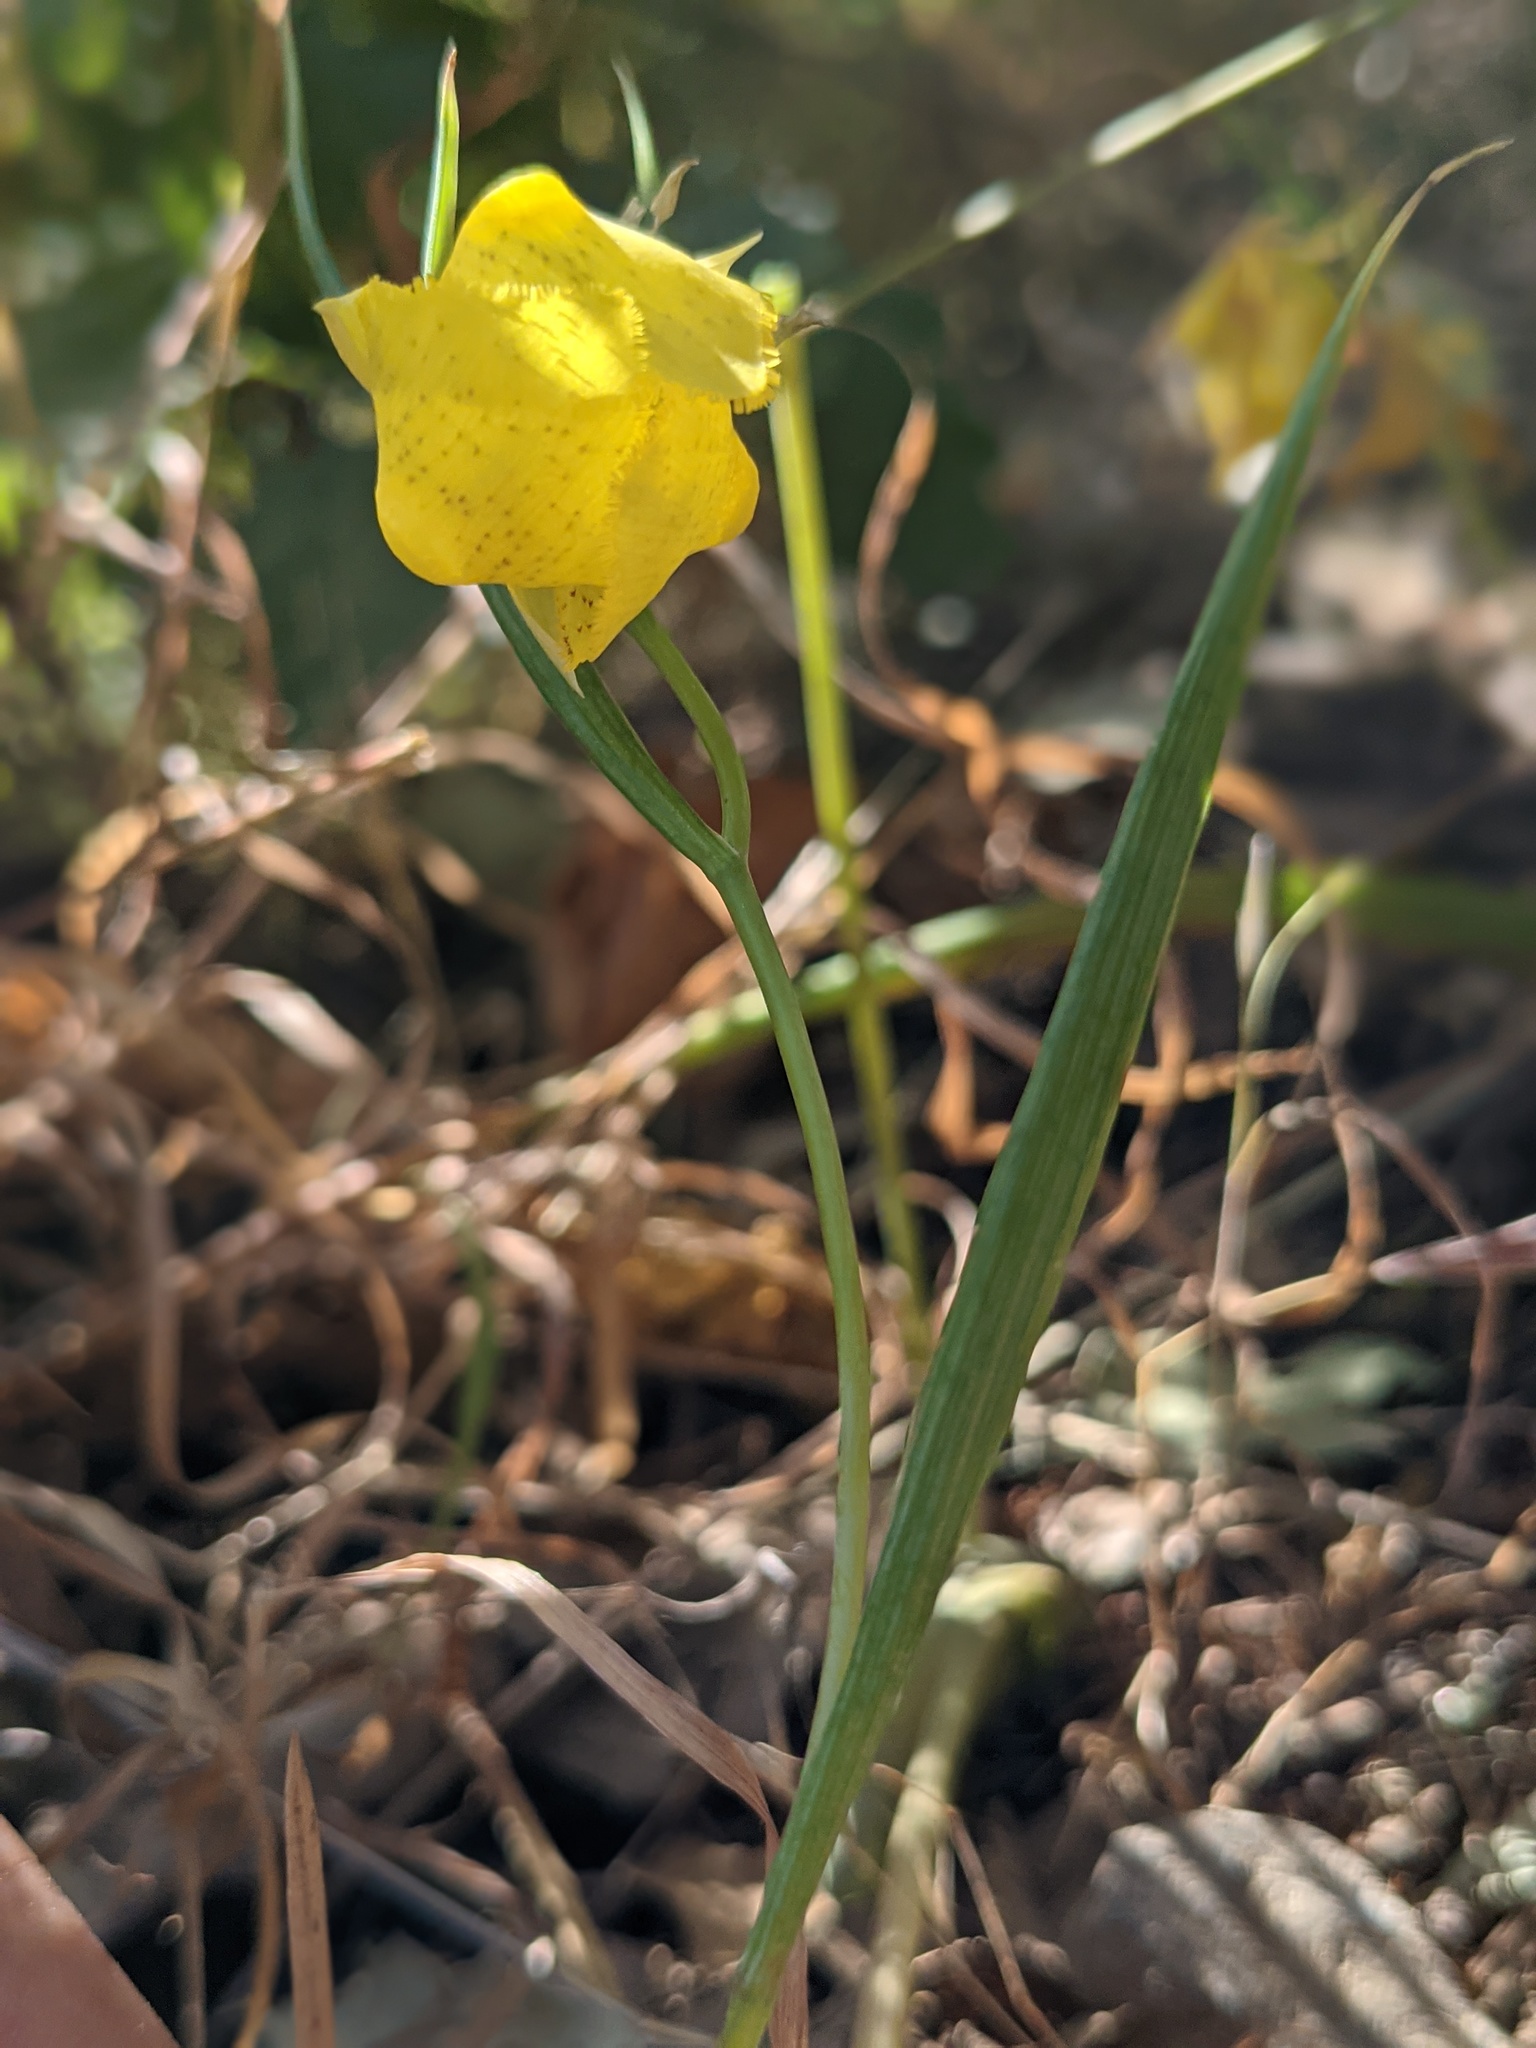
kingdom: Plantae
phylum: Tracheophyta
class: Liliopsida
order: Liliales
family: Liliaceae
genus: Calochortus
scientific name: Calochortus pulchellus
